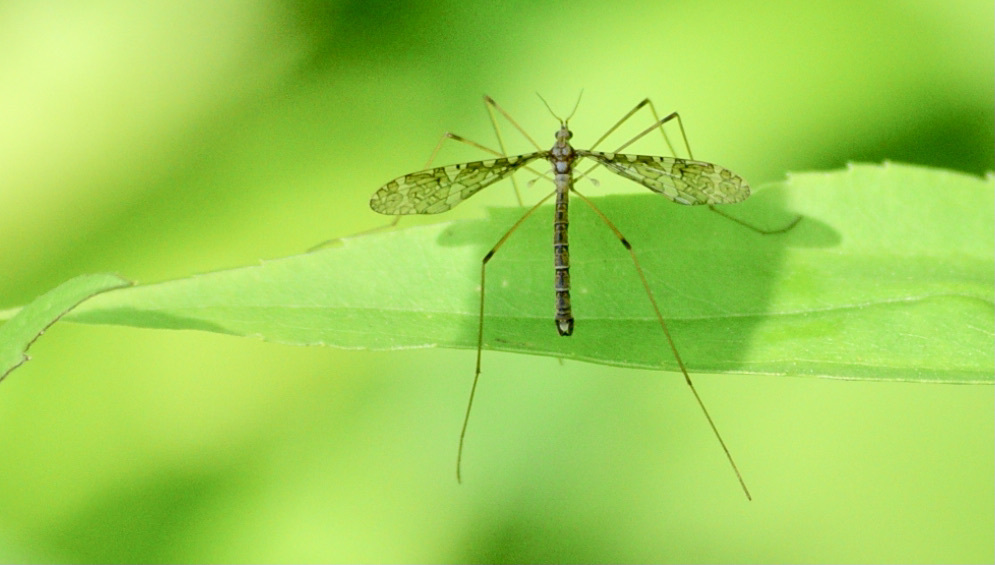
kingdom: Animalia
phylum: Arthropoda
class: Insecta
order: Diptera
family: Limoniidae
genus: Epiphragma
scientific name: Epiphragma fasciapenne
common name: Band-winged crane fly
